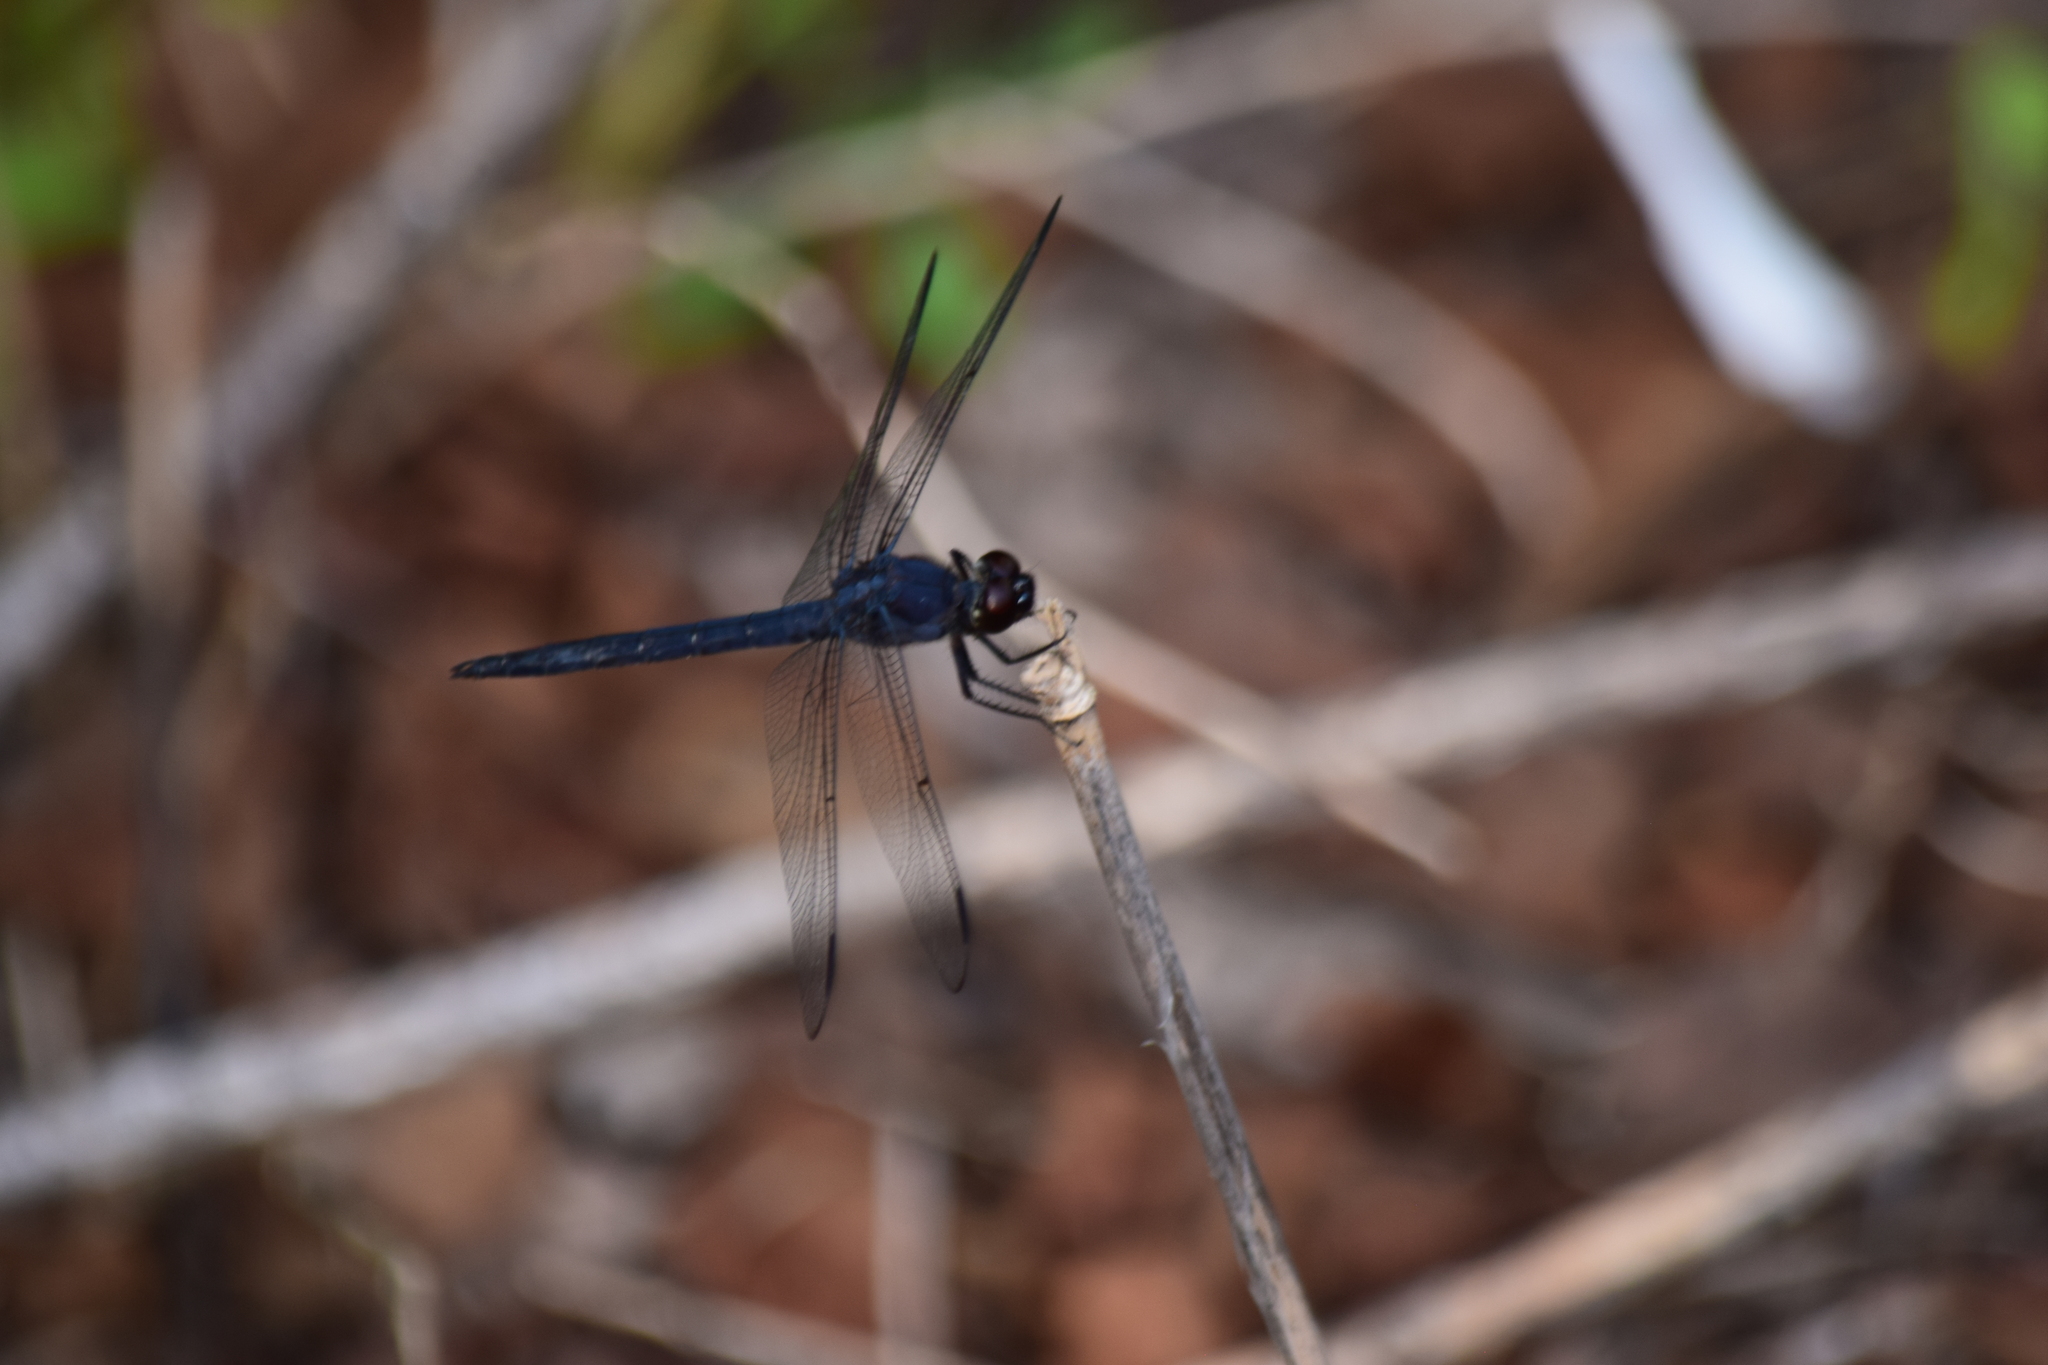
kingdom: Animalia
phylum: Arthropoda
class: Insecta
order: Odonata
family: Libellulidae
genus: Libellula
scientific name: Libellula incesta
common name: Slaty skimmer
